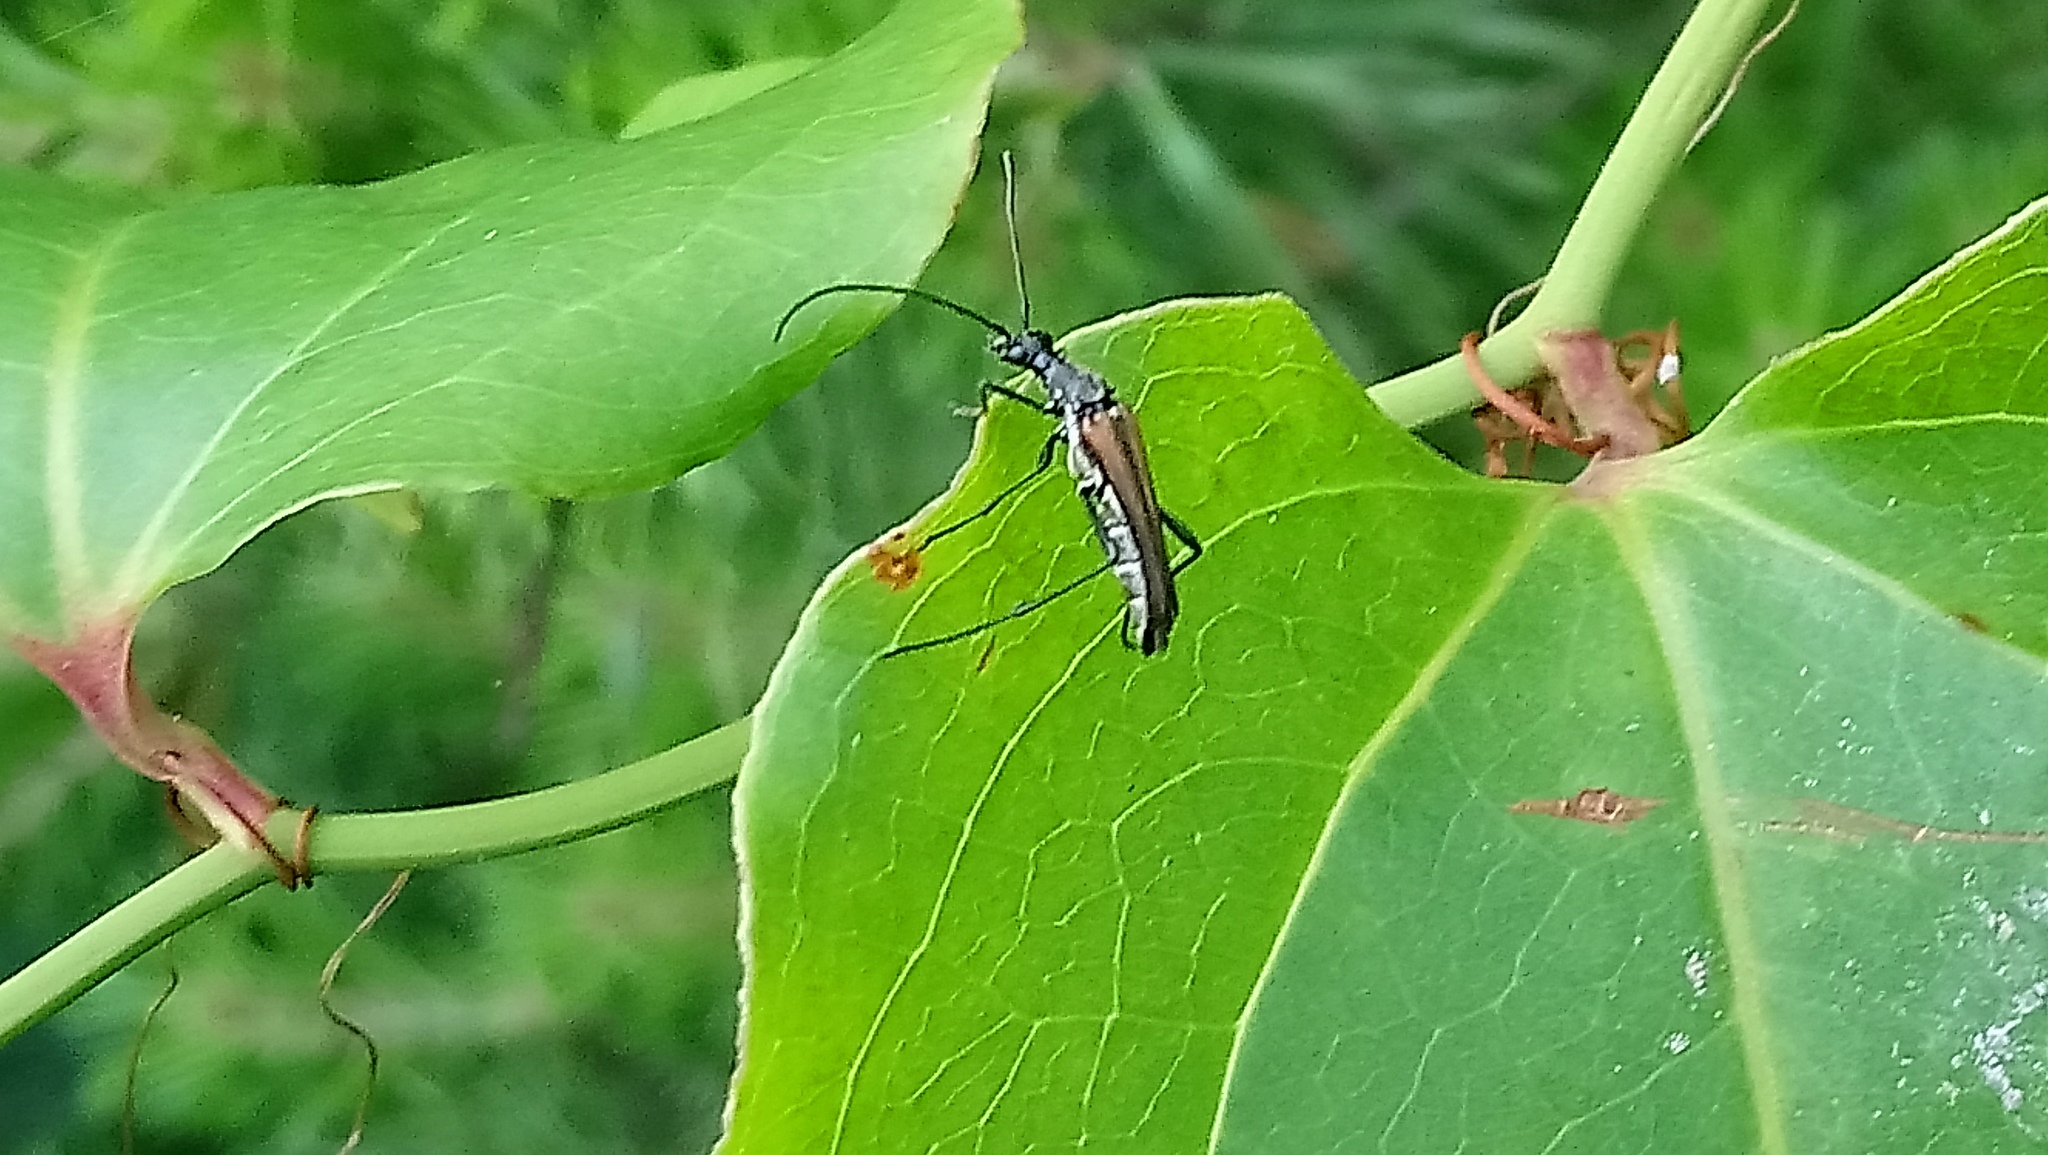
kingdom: Animalia
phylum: Arthropoda
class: Insecta
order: Coleoptera
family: Cerambycidae
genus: Strangalia
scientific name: Strangalia acuminata
